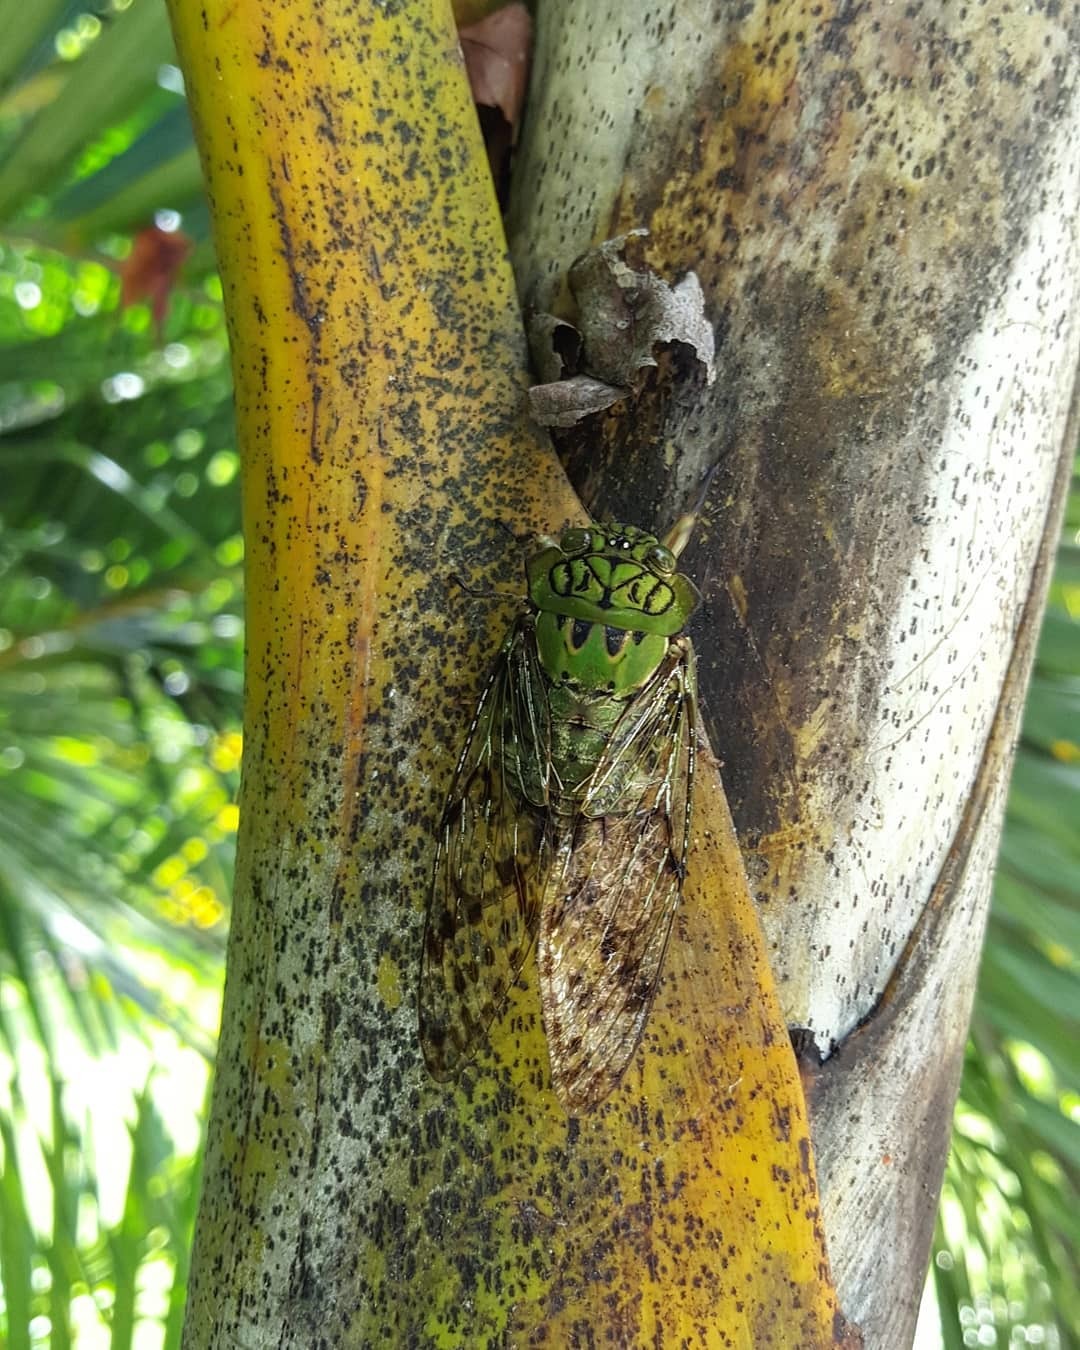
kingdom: Animalia
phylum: Arthropoda
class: Insecta
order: Hemiptera
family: Cicadidae
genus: Miranha
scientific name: Miranha imbellis
